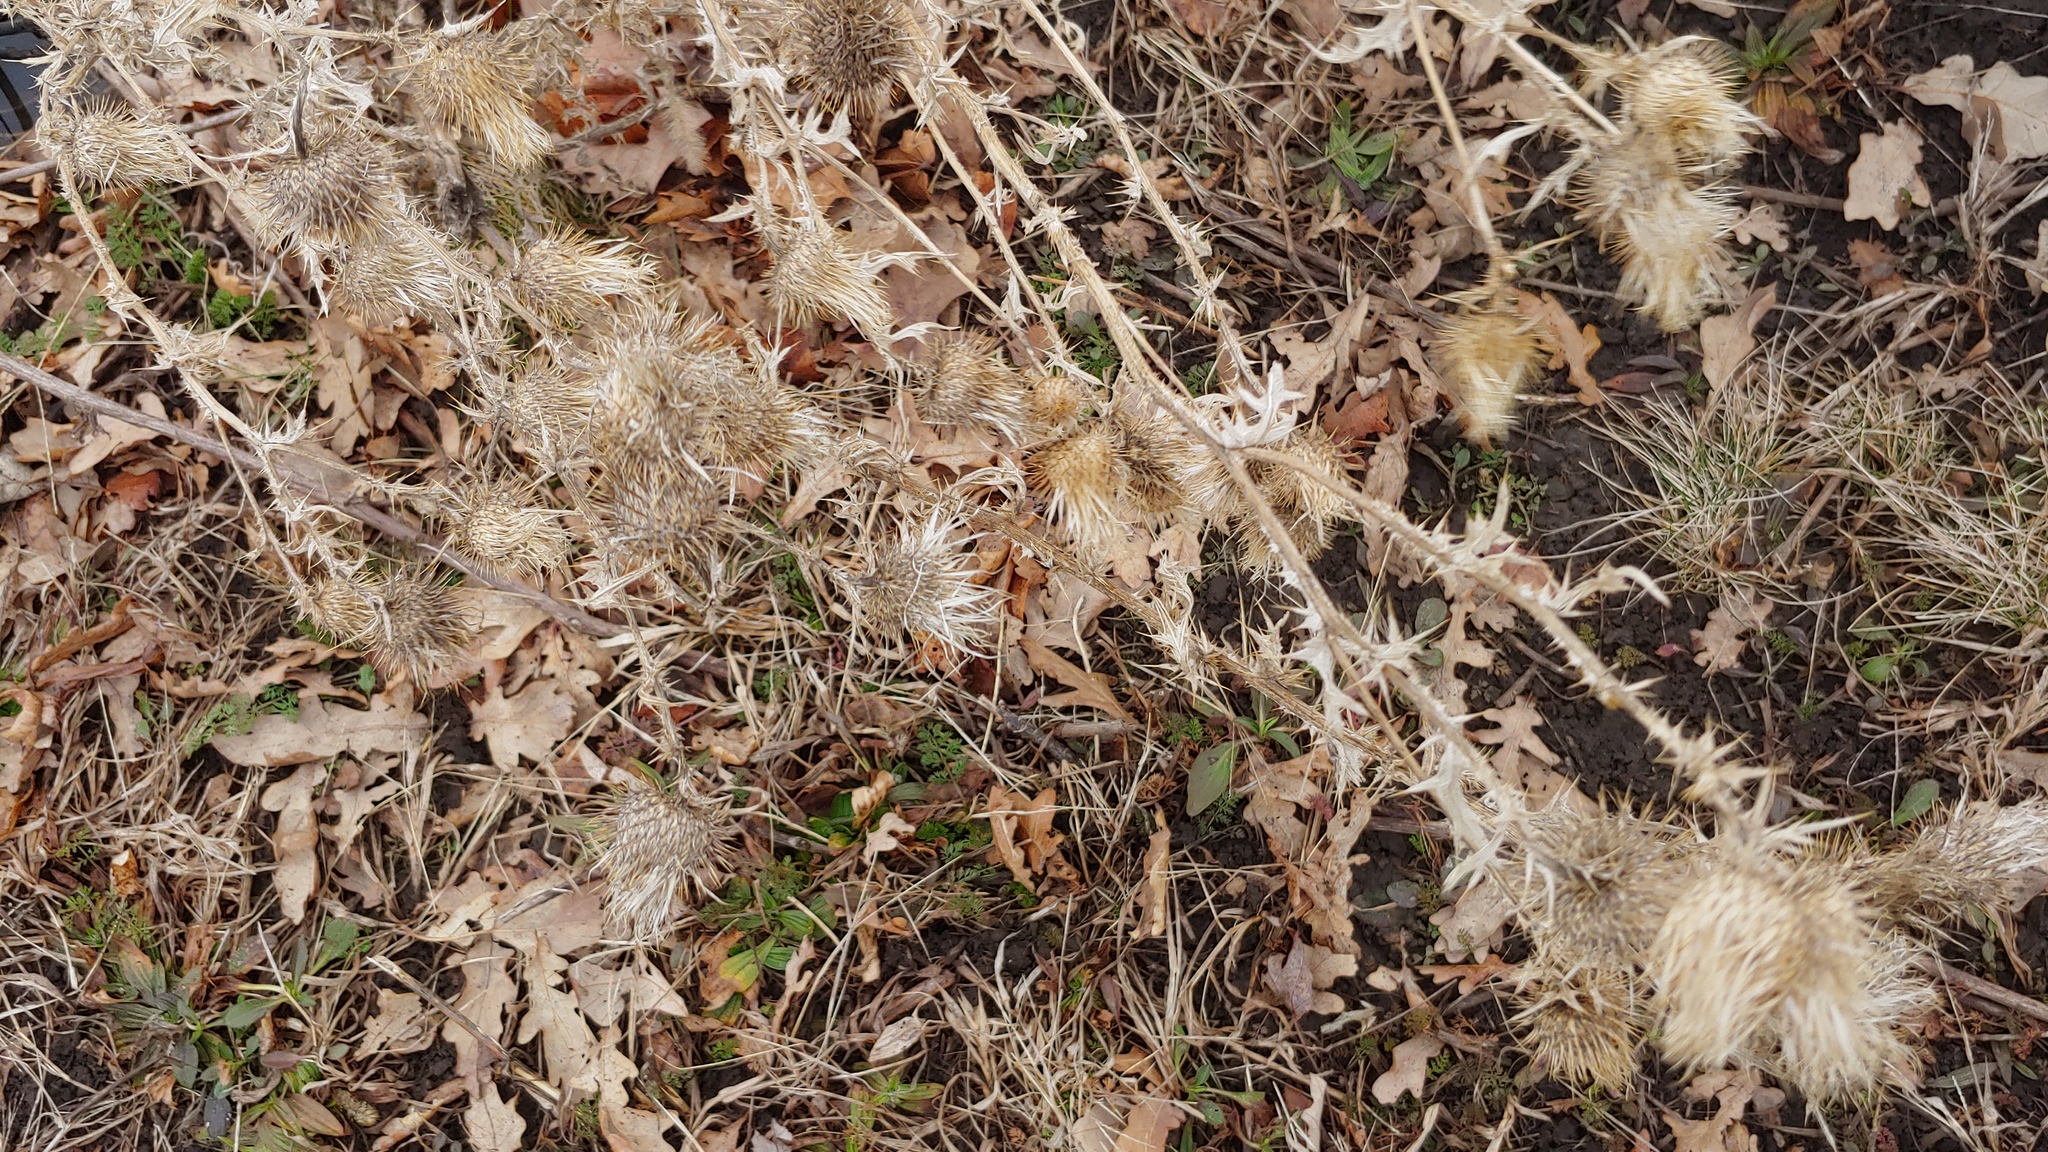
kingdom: Plantae
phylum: Tracheophyta
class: Magnoliopsida
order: Asterales
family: Asteraceae
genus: Cirsium
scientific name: Cirsium vulgare
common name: Bull thistle
